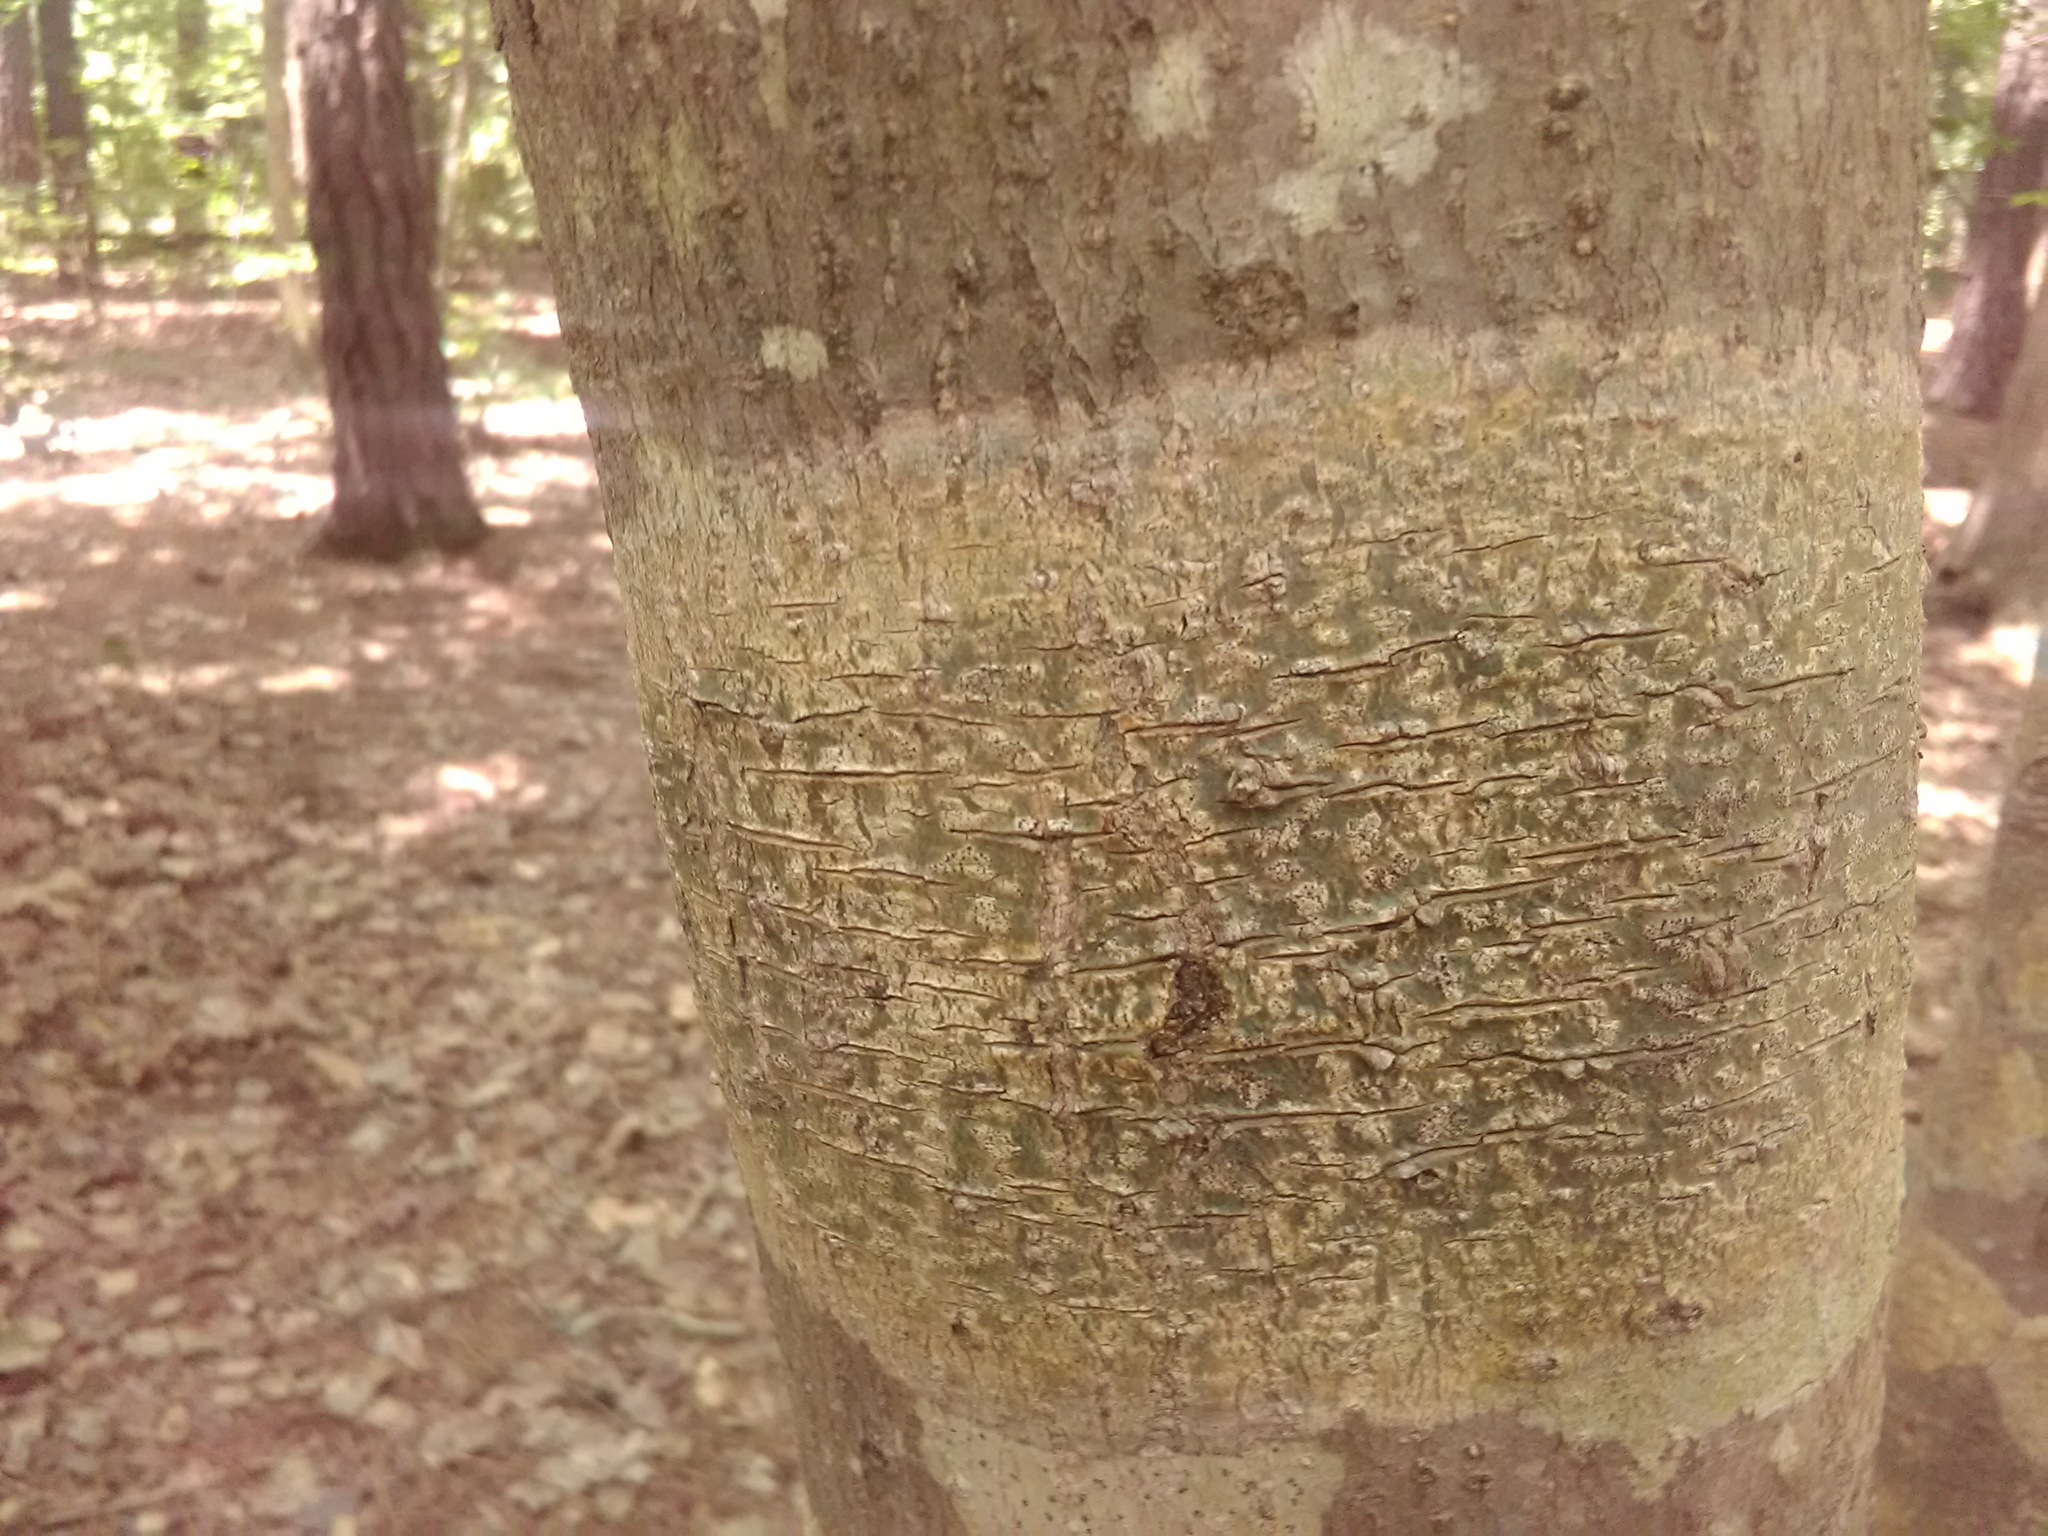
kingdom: Fungi
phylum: Ascomycota
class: Dothideomycetes
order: Trypetheliales
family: Trypetheliaceae
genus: Viridothelium
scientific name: Viridothelium virens
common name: Speckled blister lichen
